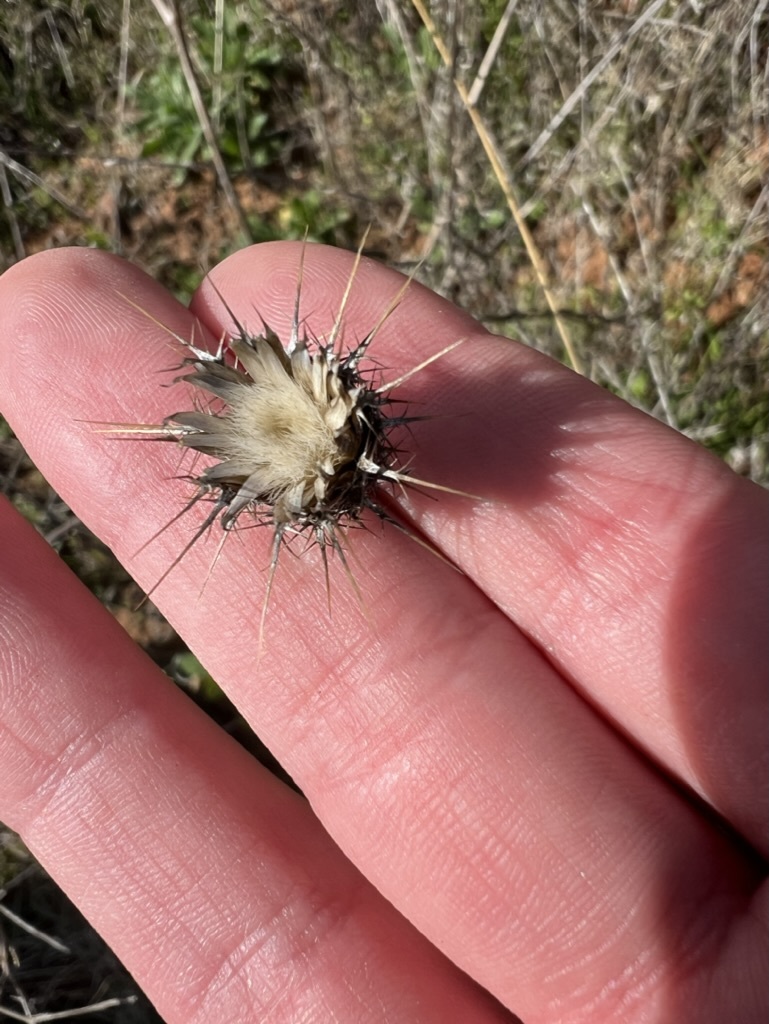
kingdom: Plantae
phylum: Tracheophyta
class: Magnoliopsida
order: Asterales
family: Asteraceae
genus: Centaurea
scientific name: Centaurea melitensis
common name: Maltese star-thistle
